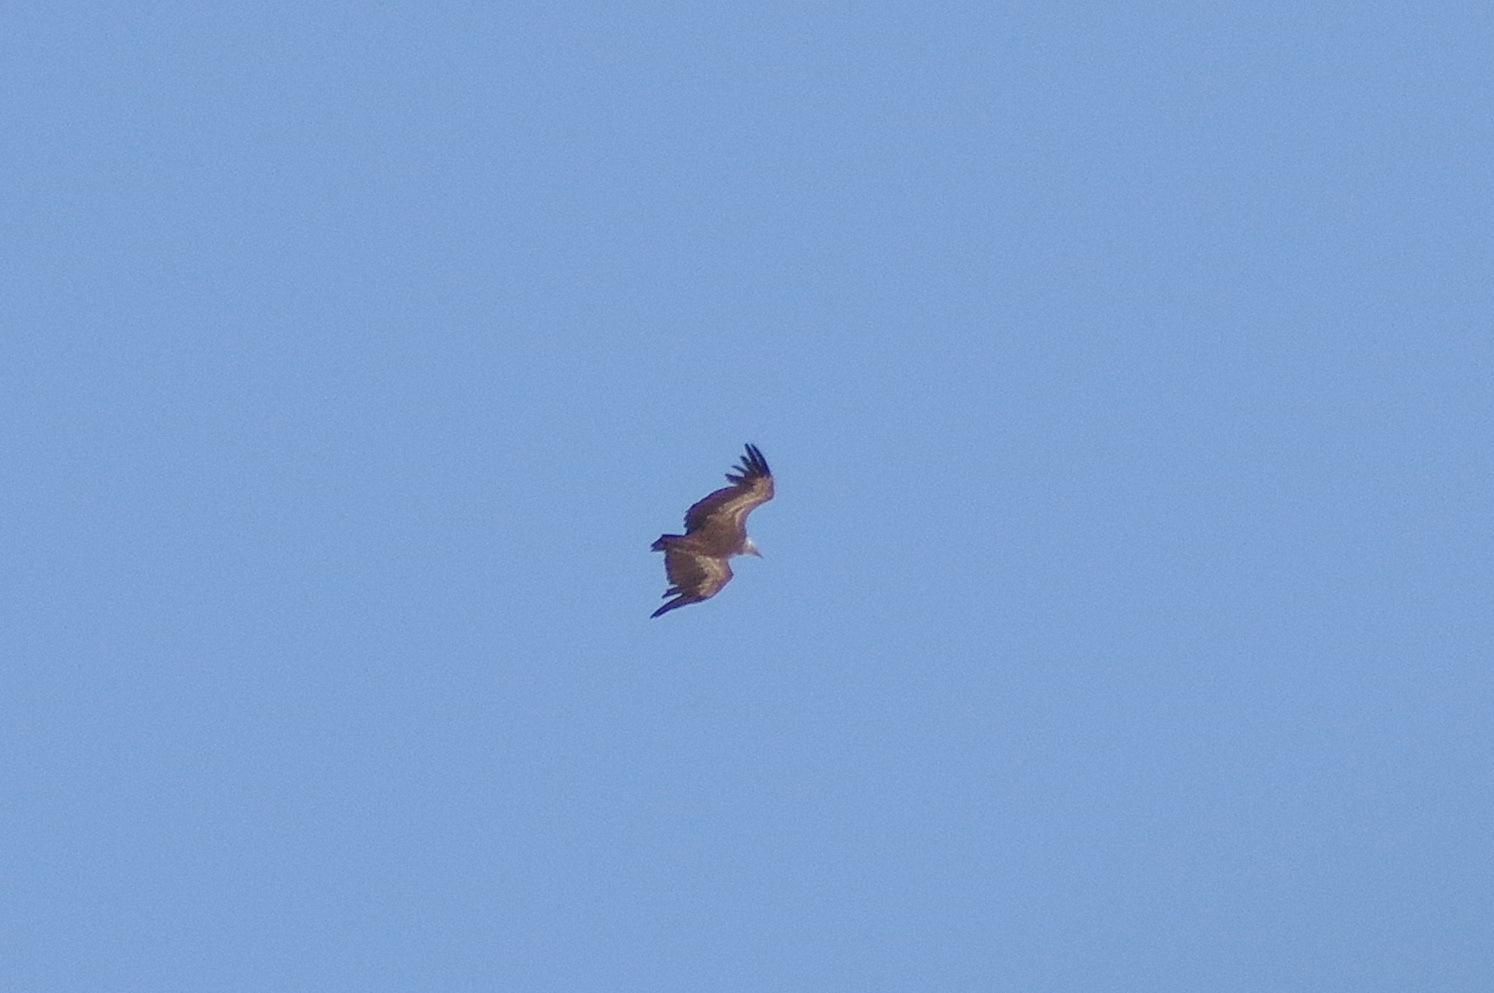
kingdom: Animalia
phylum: Chordata
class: Aves
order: Accipitriformes
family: Accipitridae
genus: Gyps
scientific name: Gyps fulvus
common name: Griffon vulture
